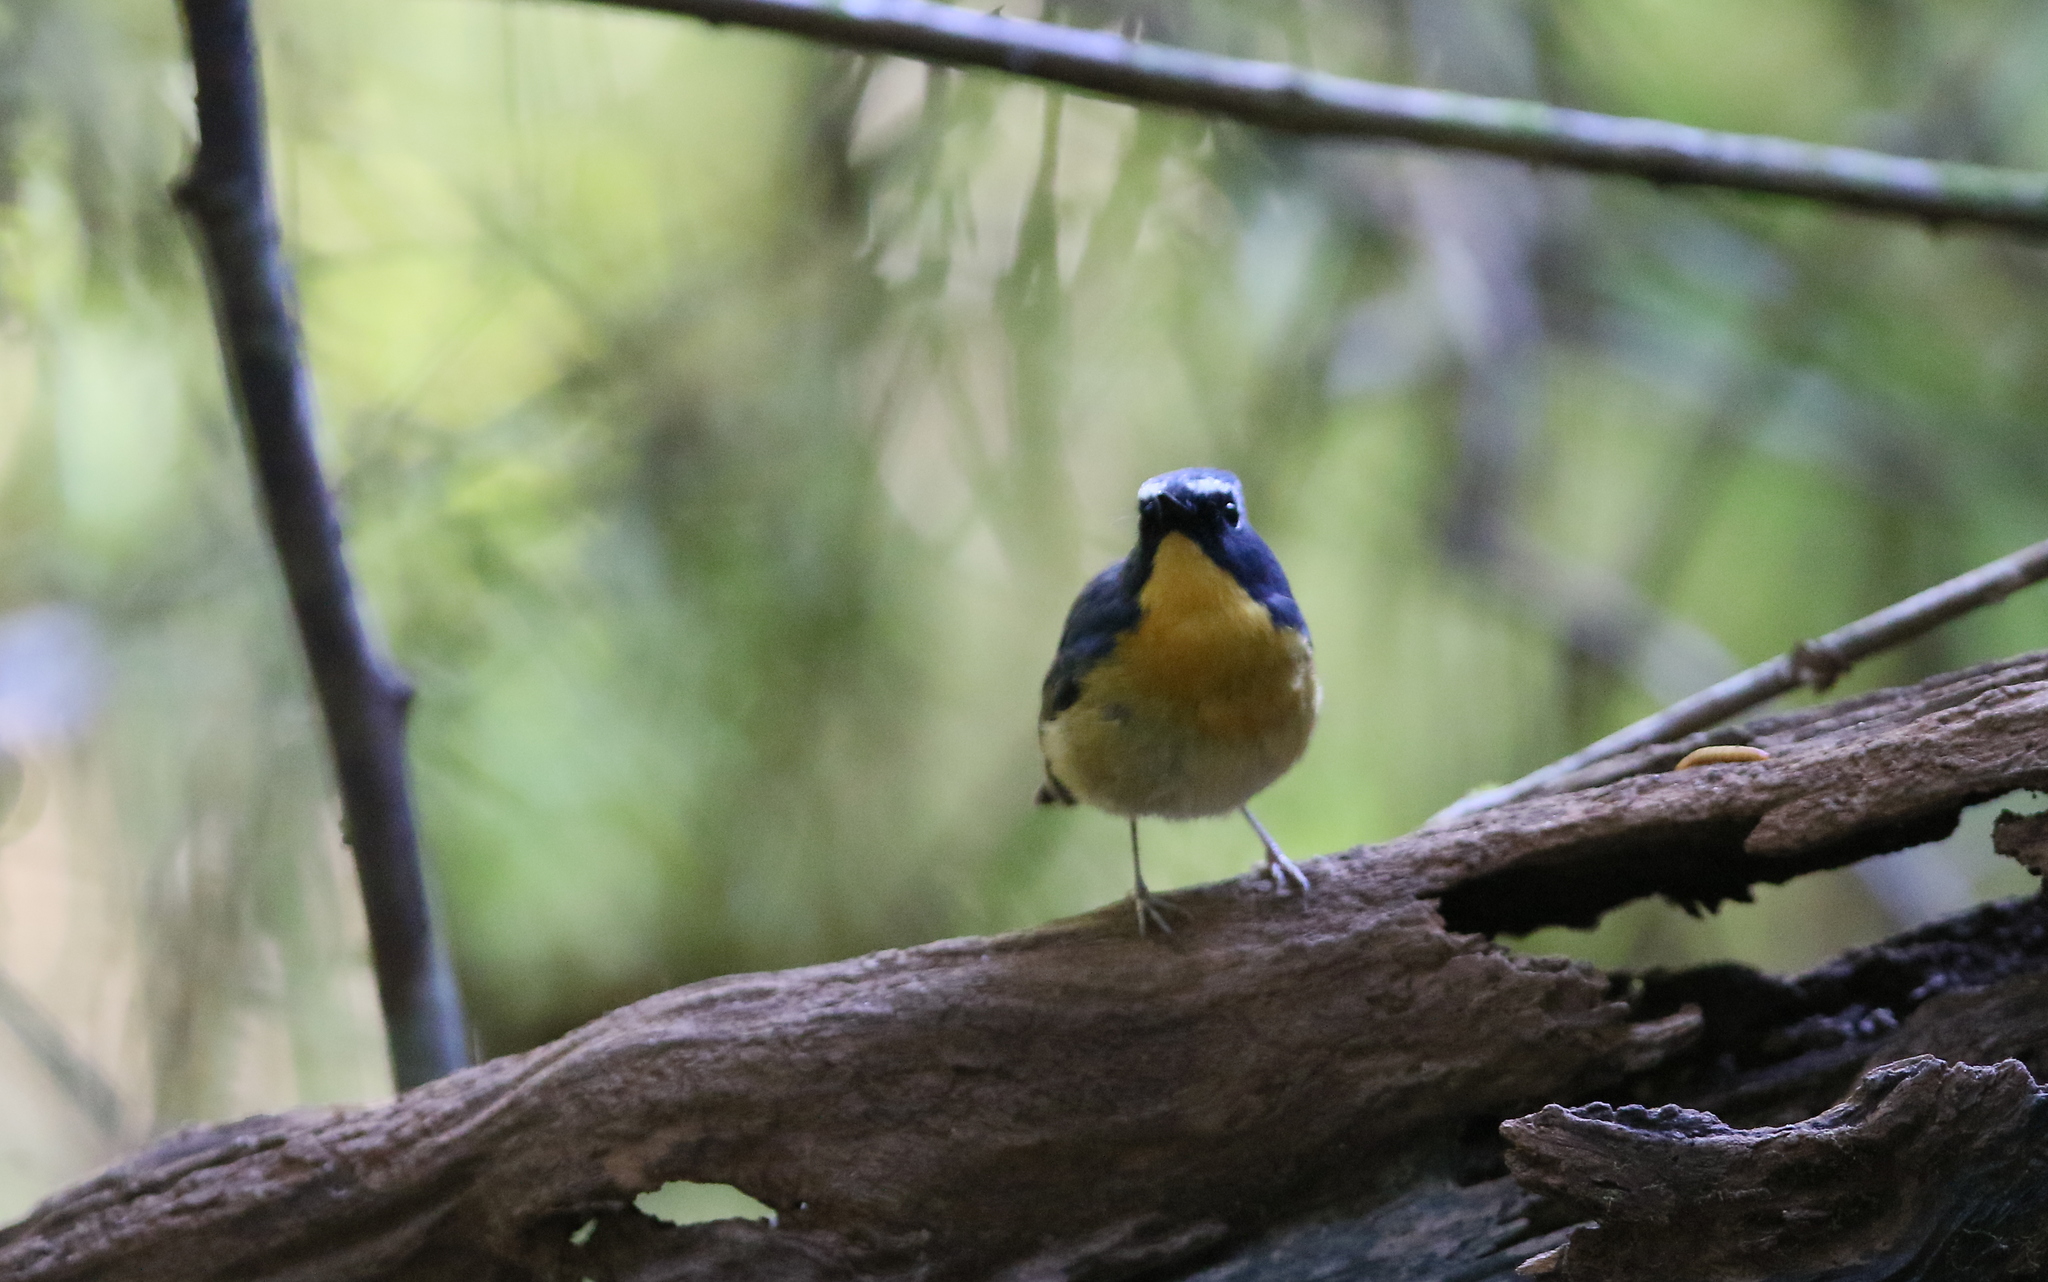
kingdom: Animalia
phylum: Chordata
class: Aves
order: Passeriformes
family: Muscicapidae
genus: Ficedula
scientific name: Ficedula hyperythra
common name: Snowy-browed flycatcher
